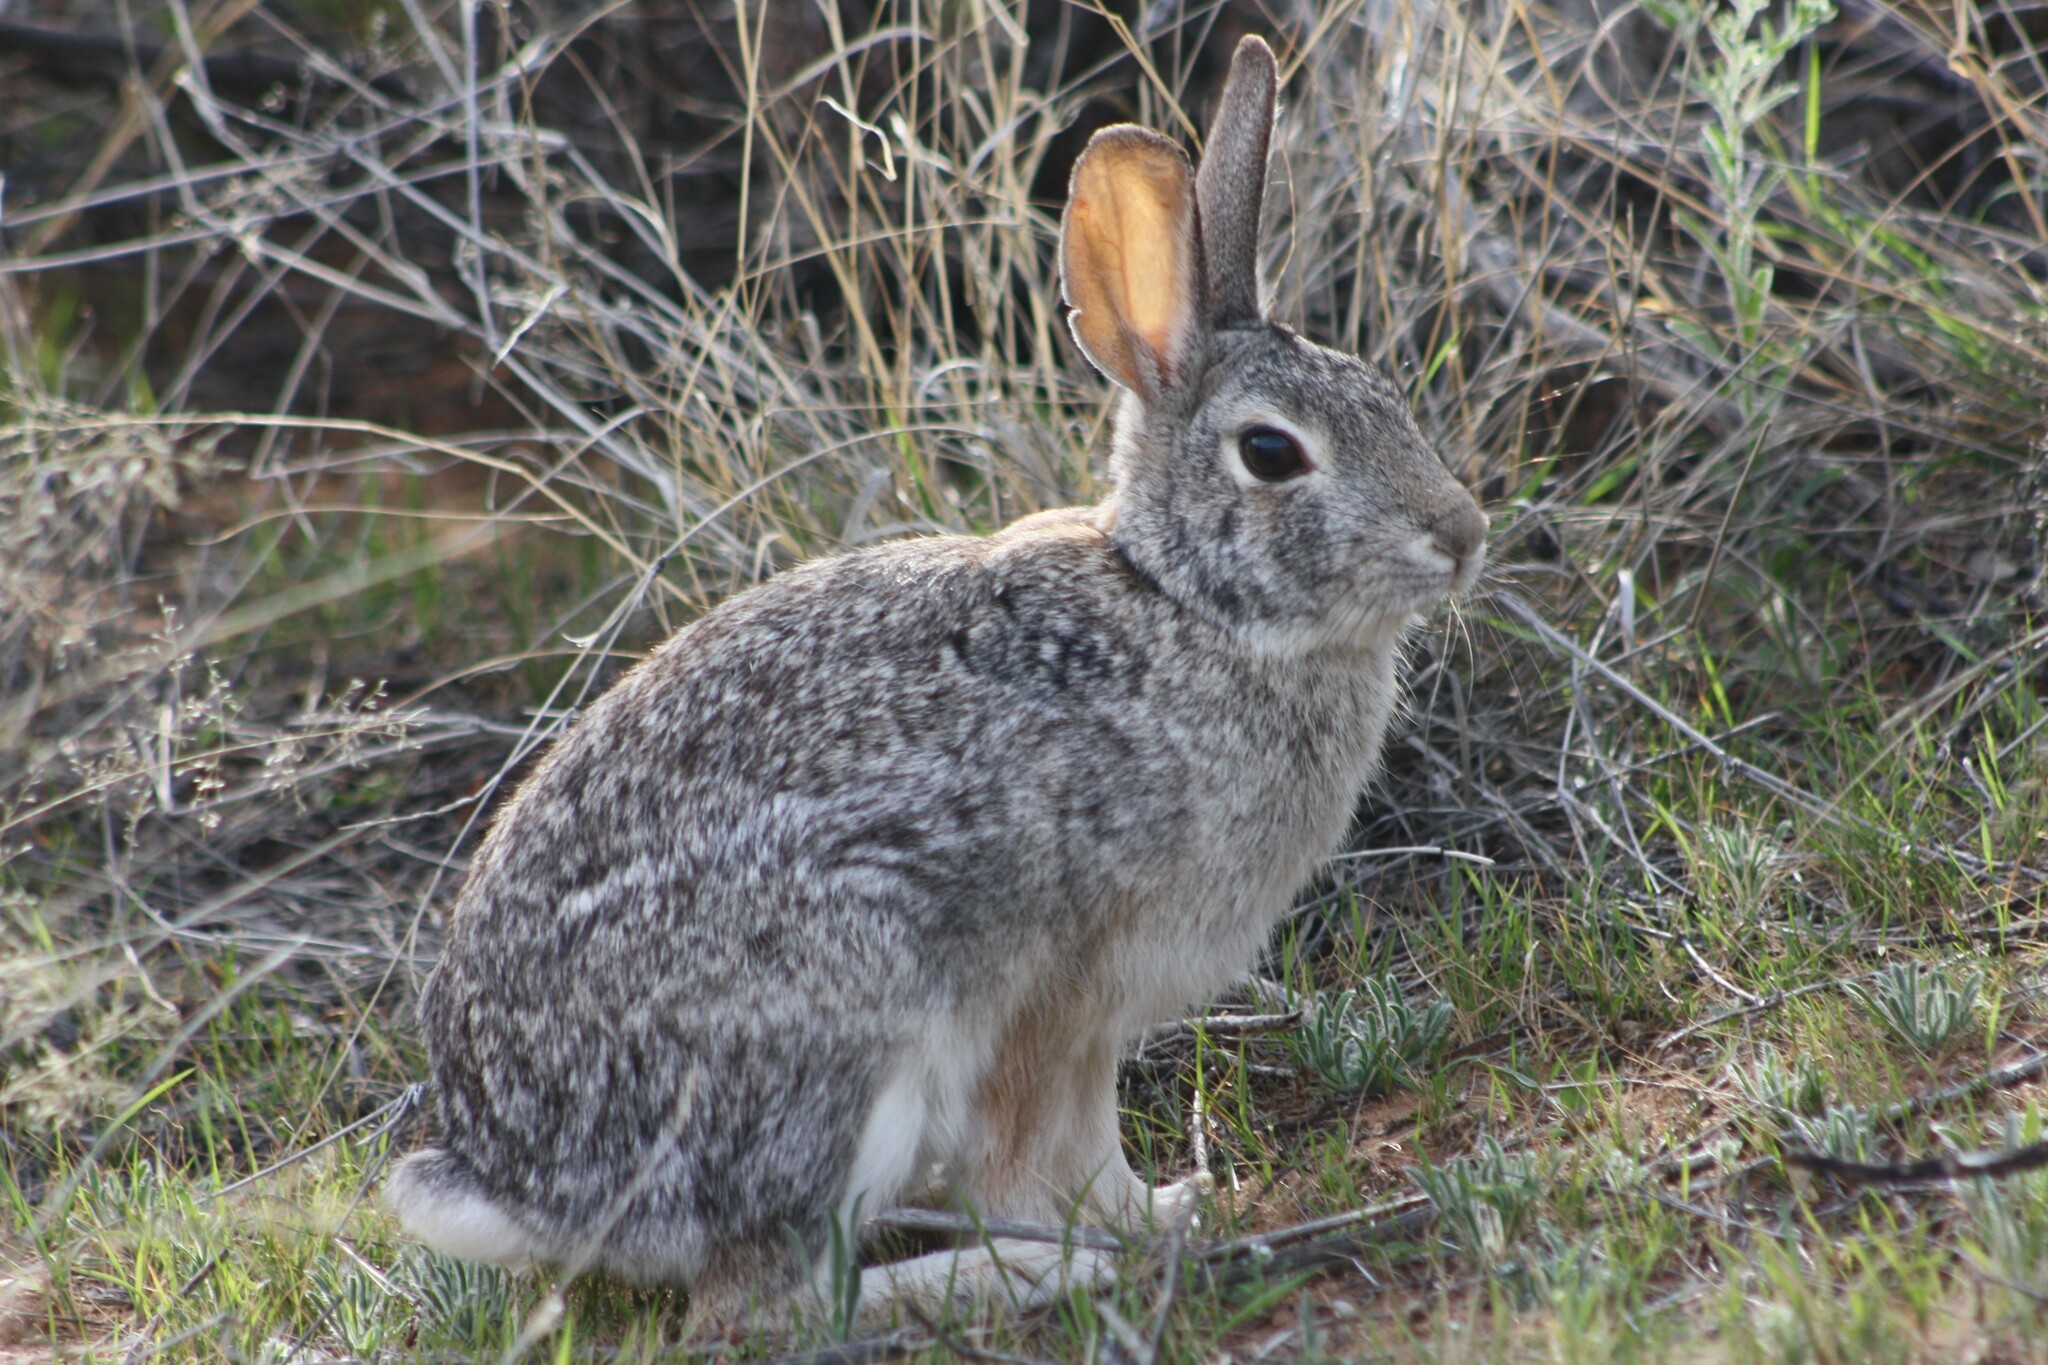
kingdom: Animalia
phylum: Chordata
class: Mammalia
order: Lagomorpha
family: Leporidae
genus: Sylvilagus
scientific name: Sylvilagus audubonii
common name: Desert cottontail
